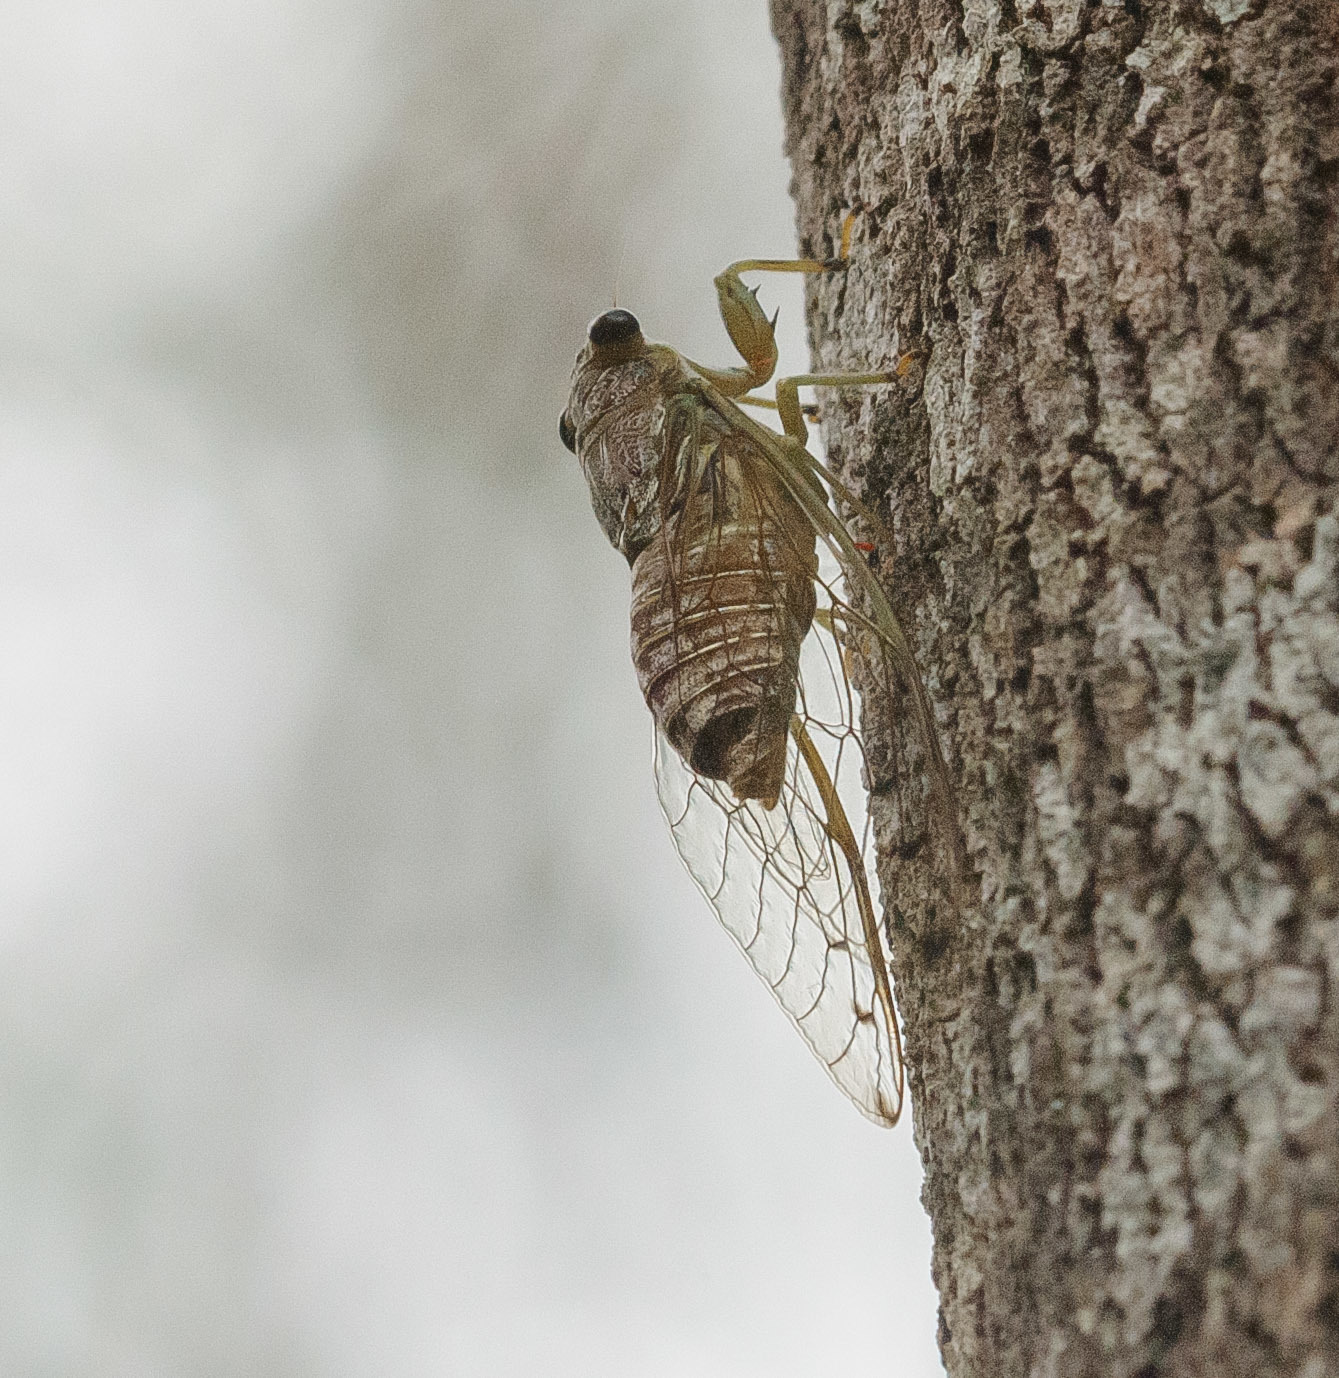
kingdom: Animalia
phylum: Arthropoda
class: Insecta
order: Hemiptera
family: Cicadidae
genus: Tamasa
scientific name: Tamasa tristigma
